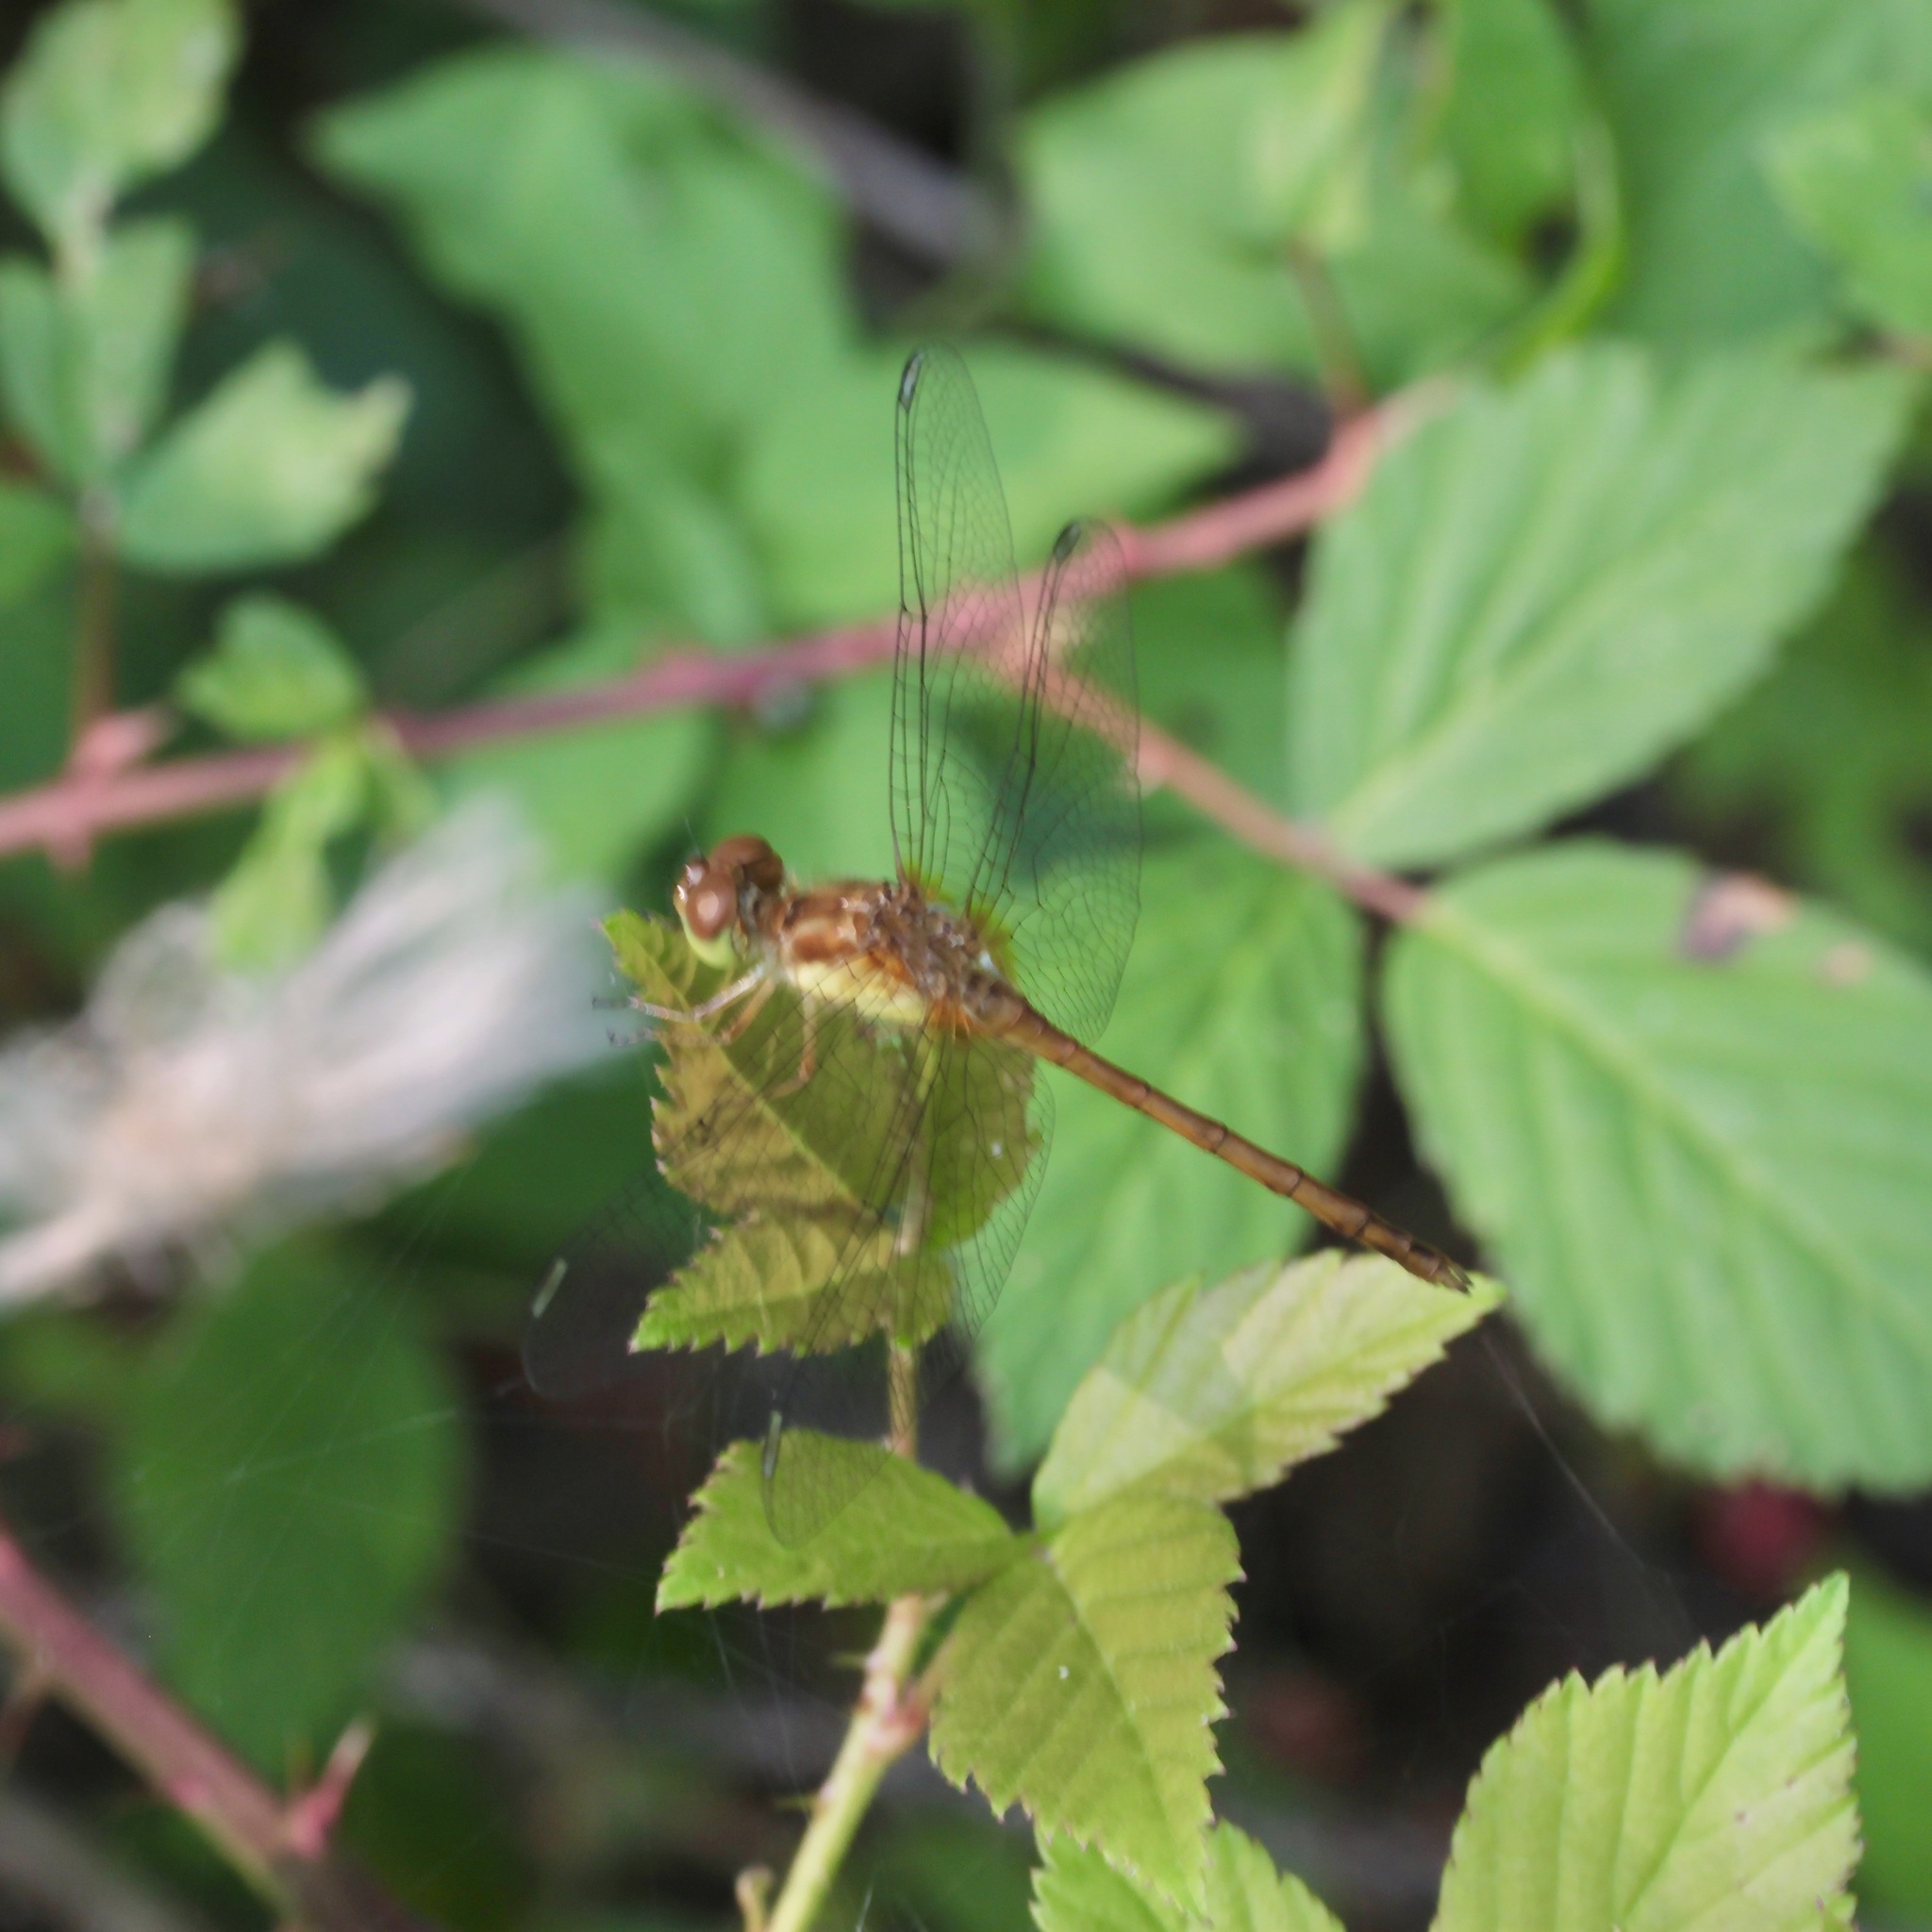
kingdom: Animalia
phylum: Arthropoda
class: Insecta
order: Odonata
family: Libellulidae
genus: Sympetrum
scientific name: Sympetrum vicinum
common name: Autumn meadowhawk
